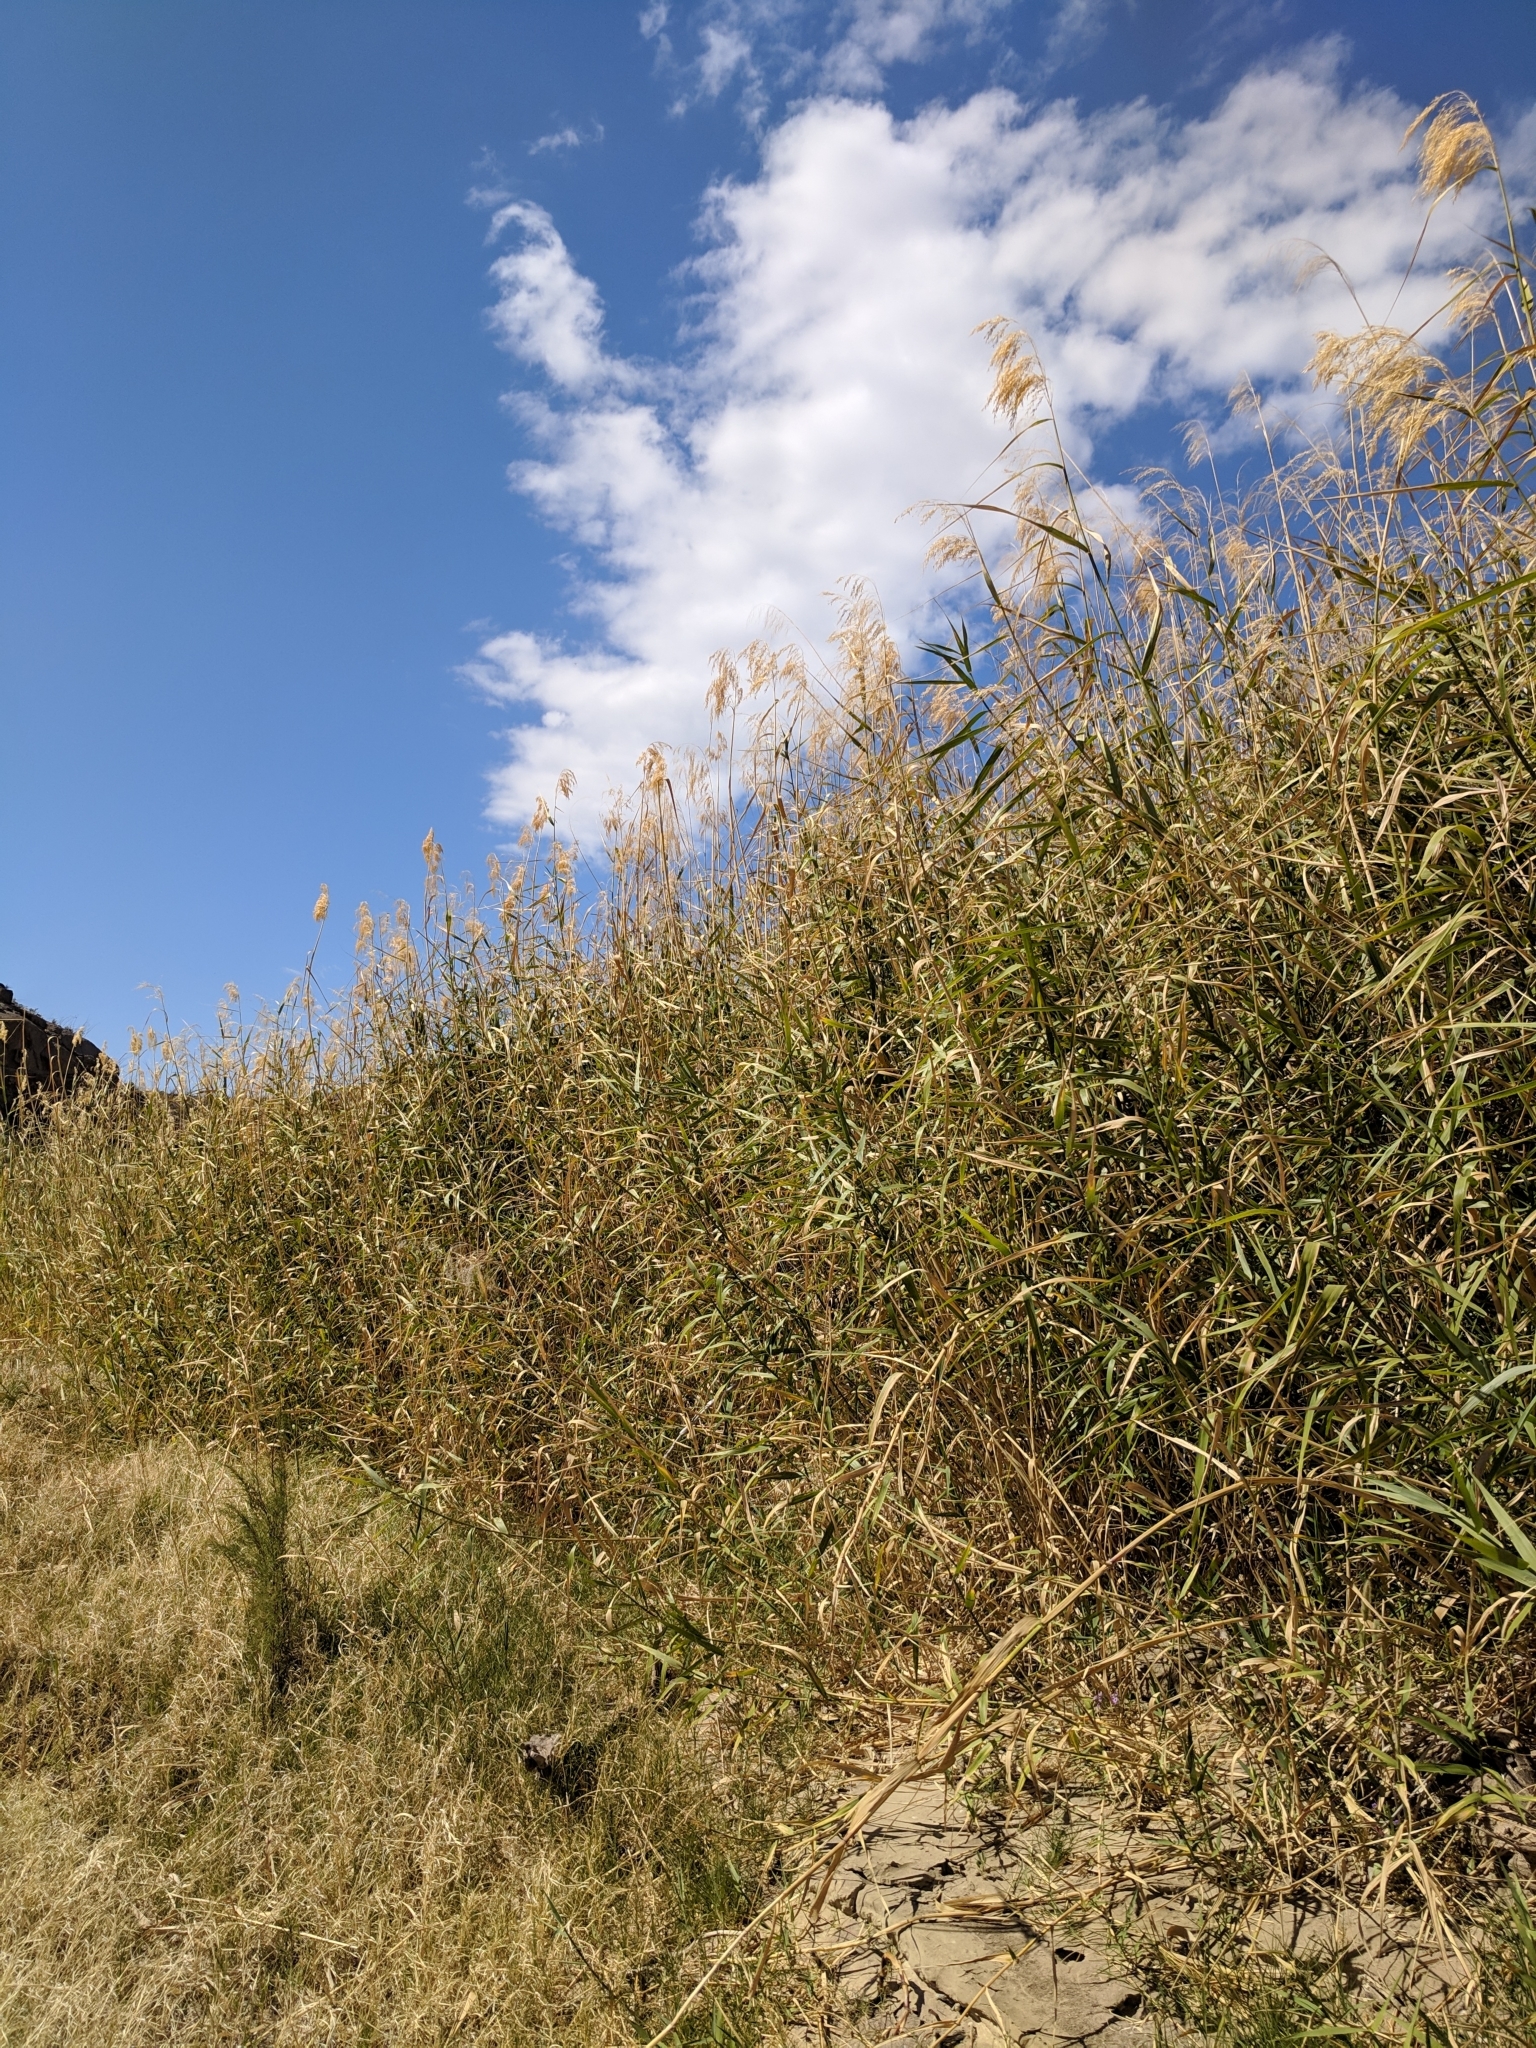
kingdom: Plantae
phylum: Tracheophyta
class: Liliopsida
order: Poales
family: Poaceae
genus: Phragmites
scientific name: Phragmites australis
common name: Common reed
